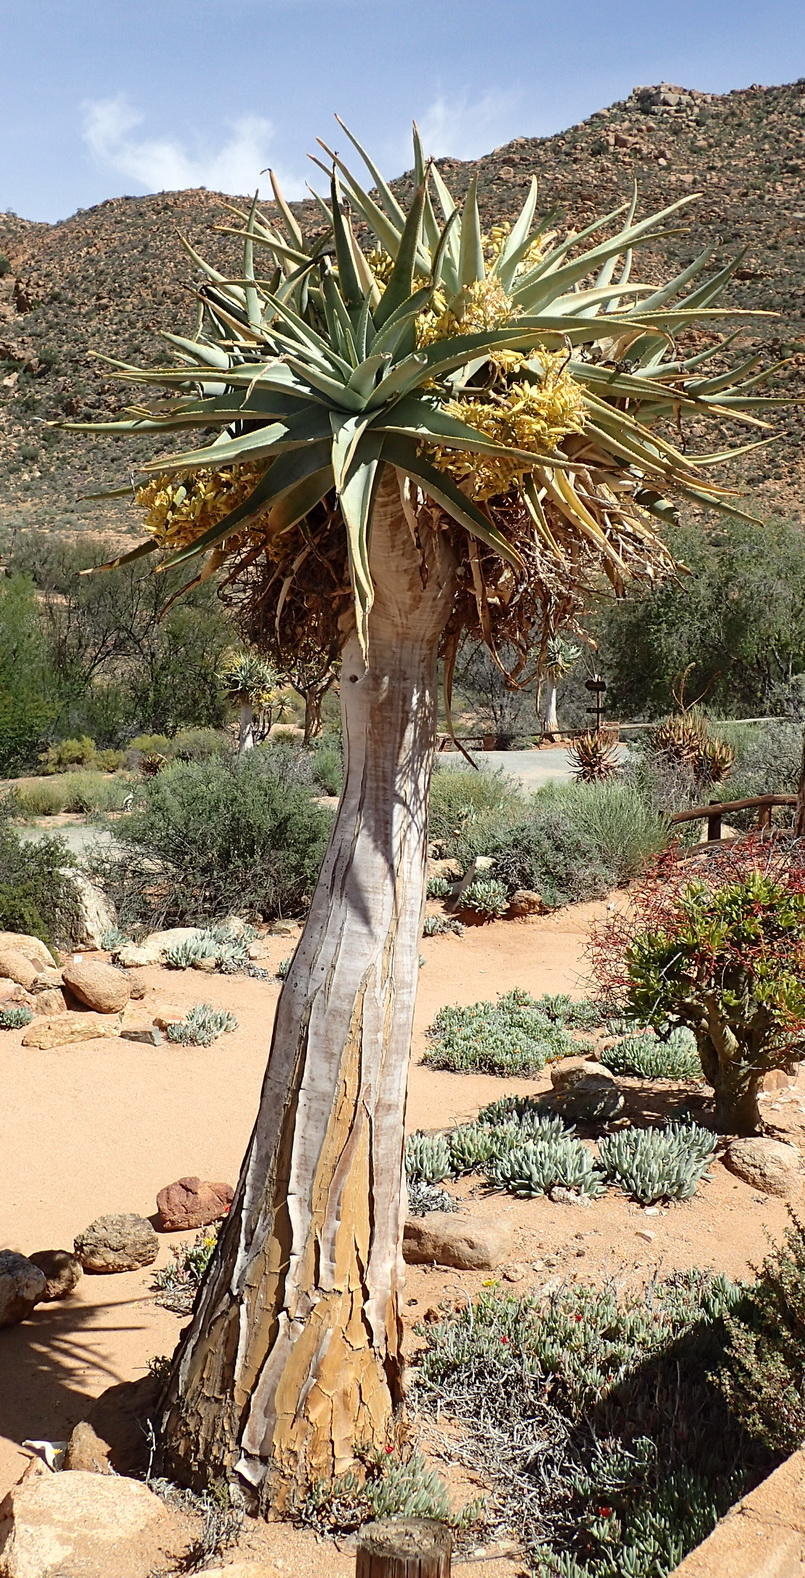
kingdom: Plantae
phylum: Tracheophyta
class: Liliopsida
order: Asparagales
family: Asphodelaceae
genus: Aloidendron
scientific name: Aloidendron dichotomum
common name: Quiver tree
